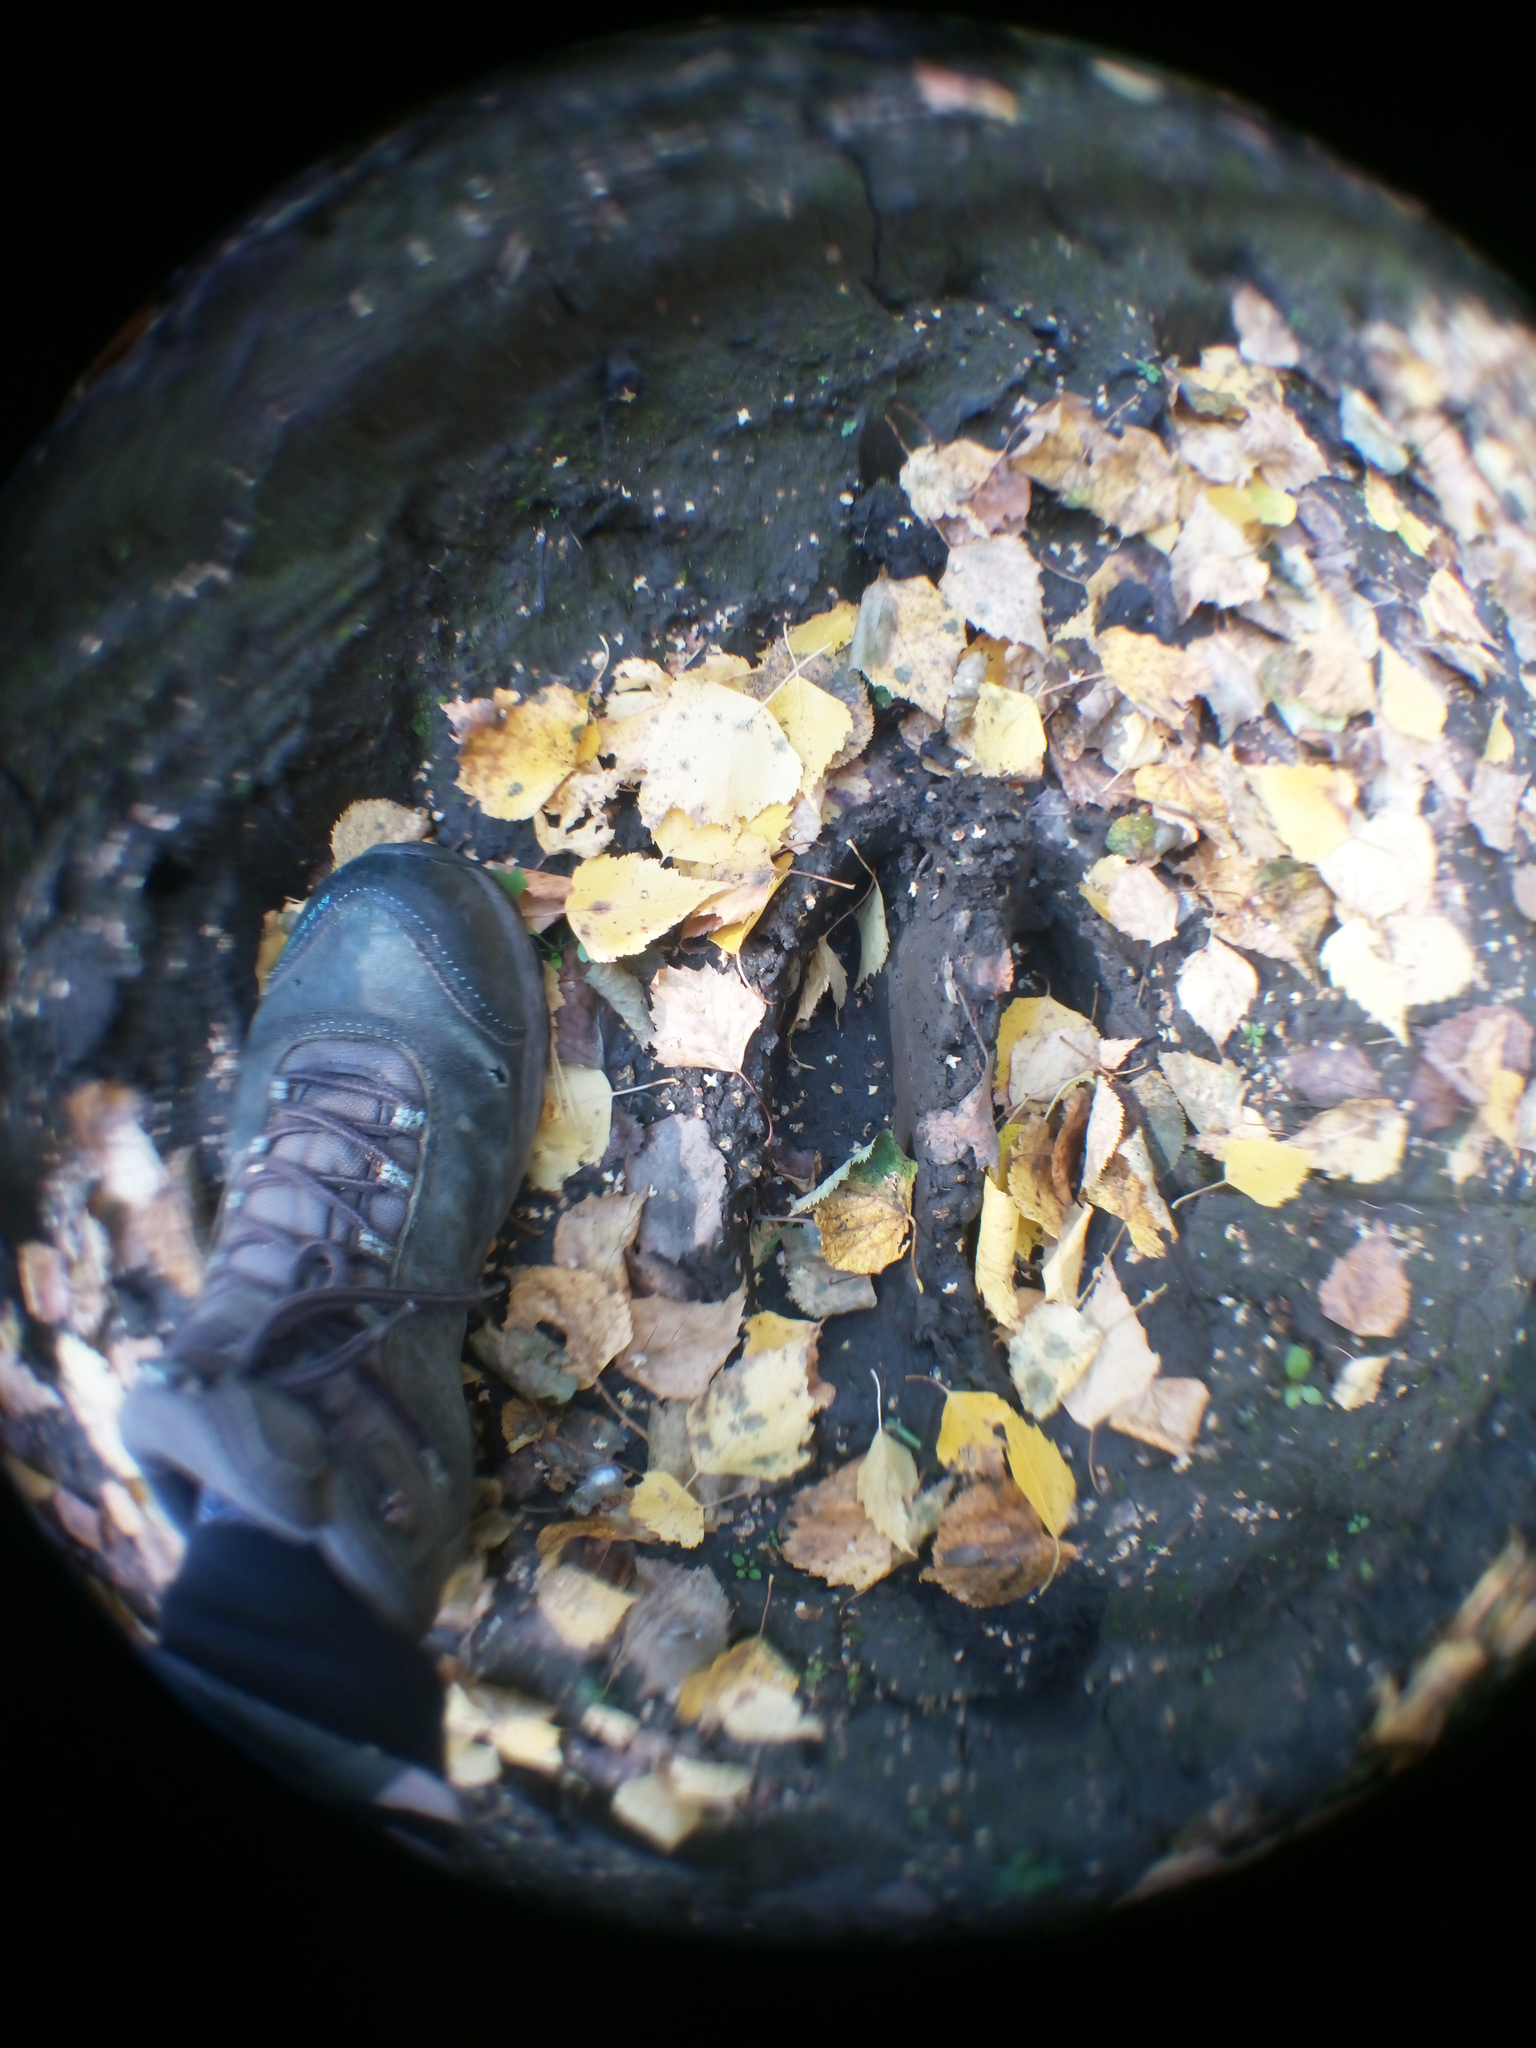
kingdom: Animalia
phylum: Chordata
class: Mammalia
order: Artiodactyla
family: Cervidae
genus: Alces
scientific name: Alces alces
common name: Moose
